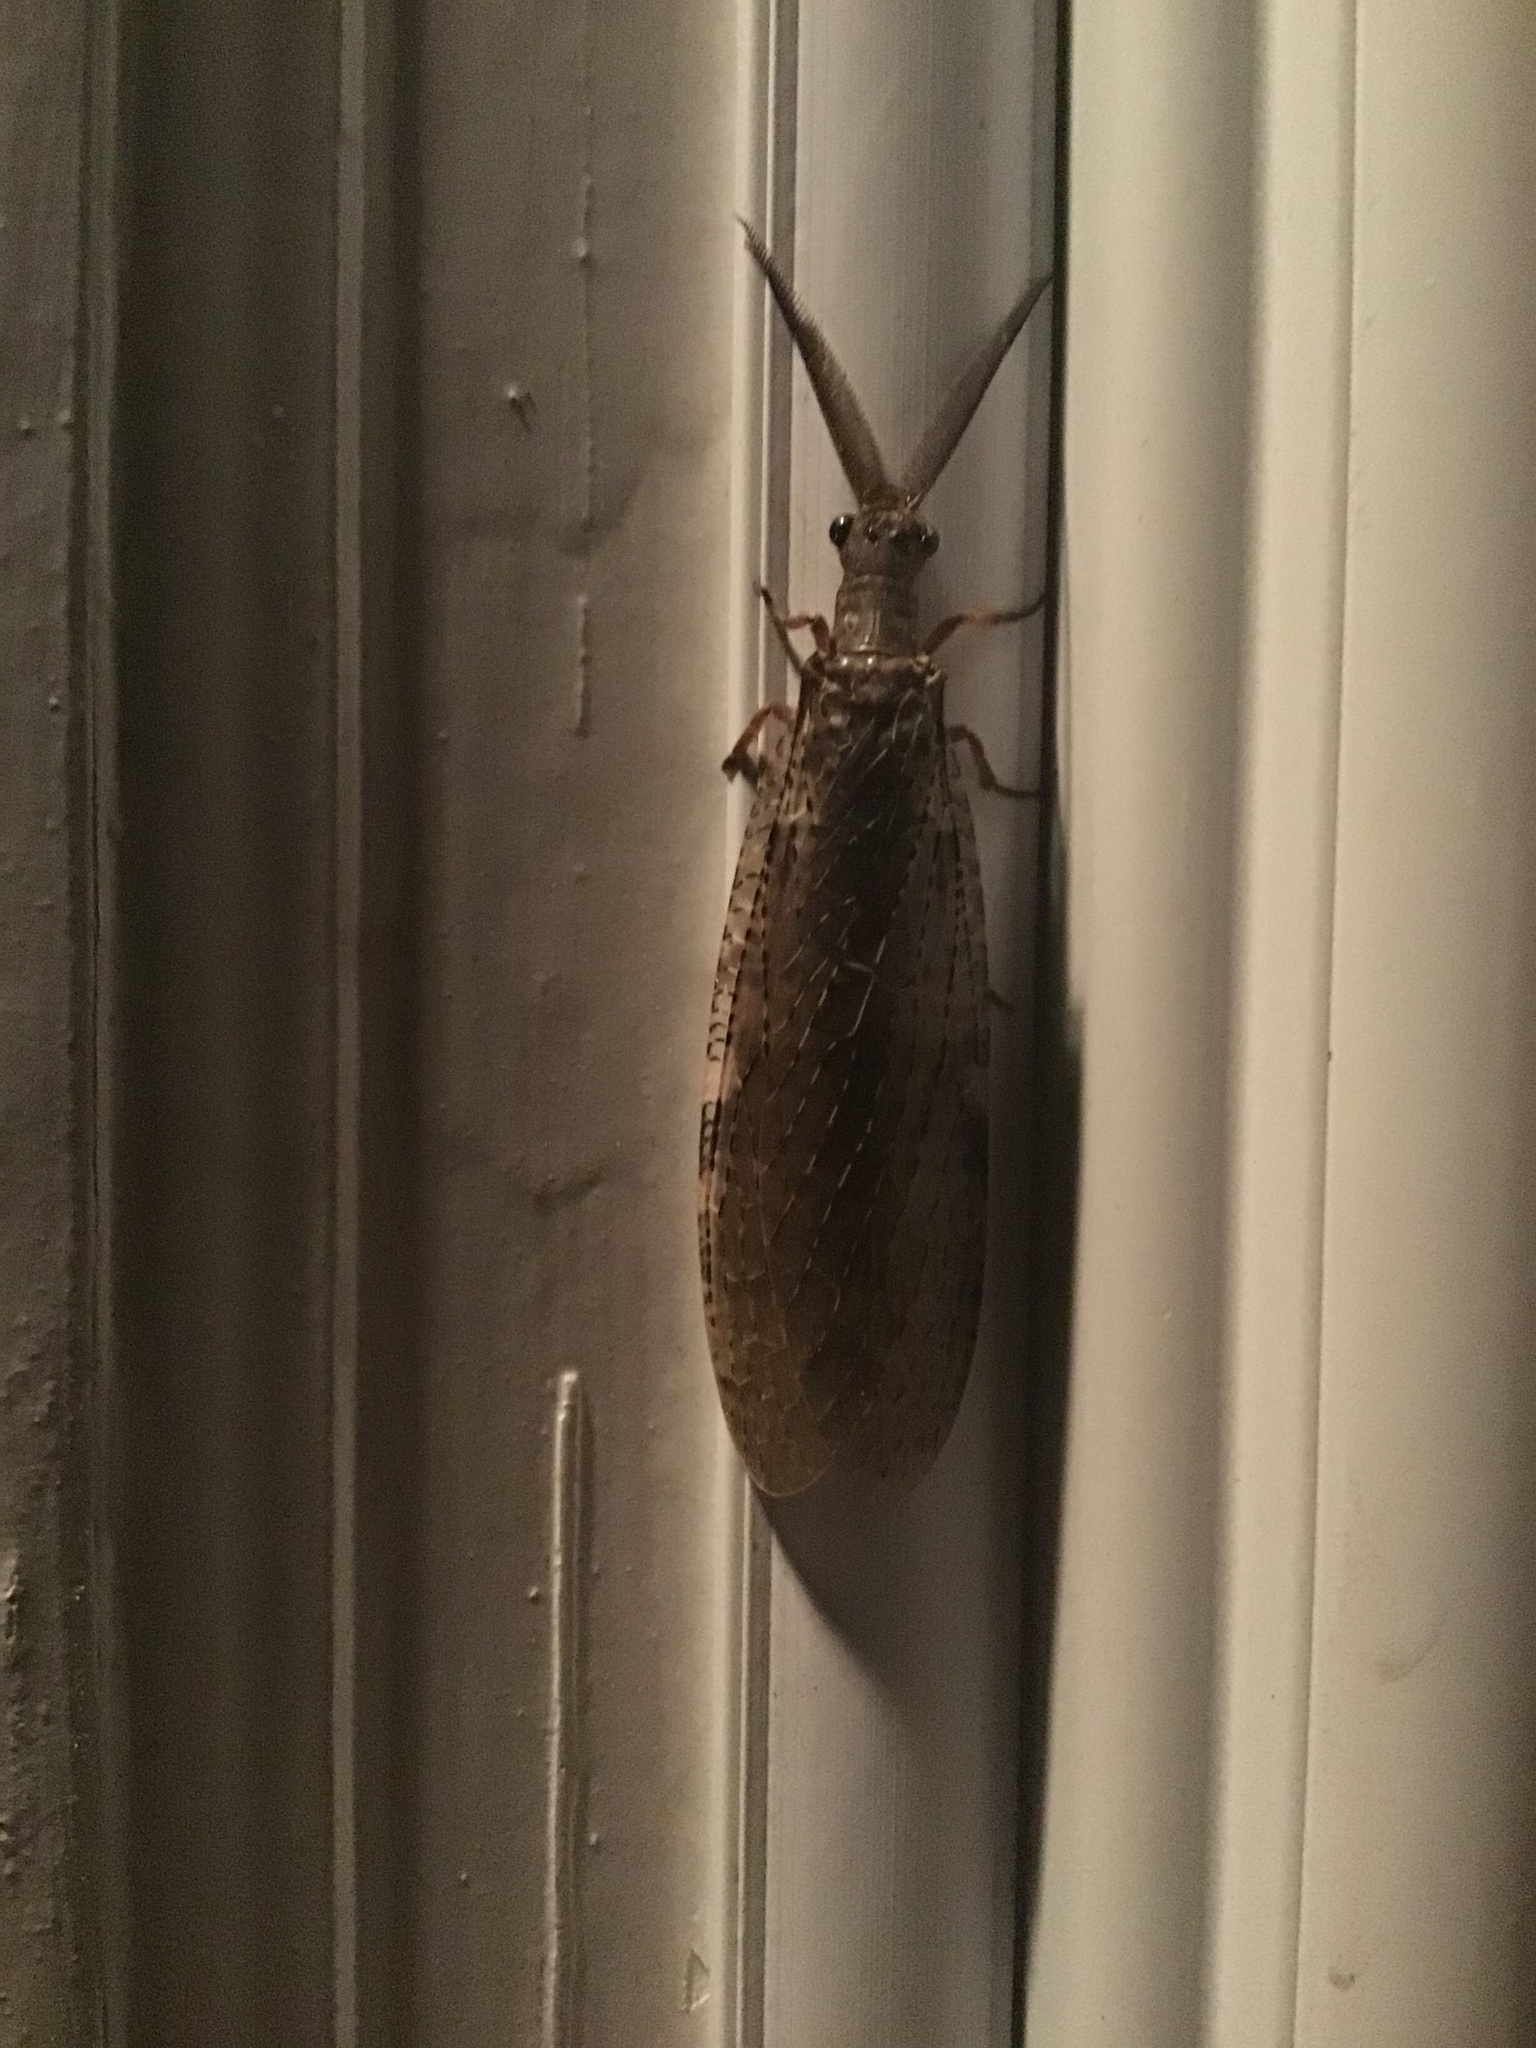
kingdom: Animalia
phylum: Arthropoda
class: Insecta
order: Megaloptera
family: Corydalidae
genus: Chauliodes
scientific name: Chauliodes pectinicornis
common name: Summer fishfly
